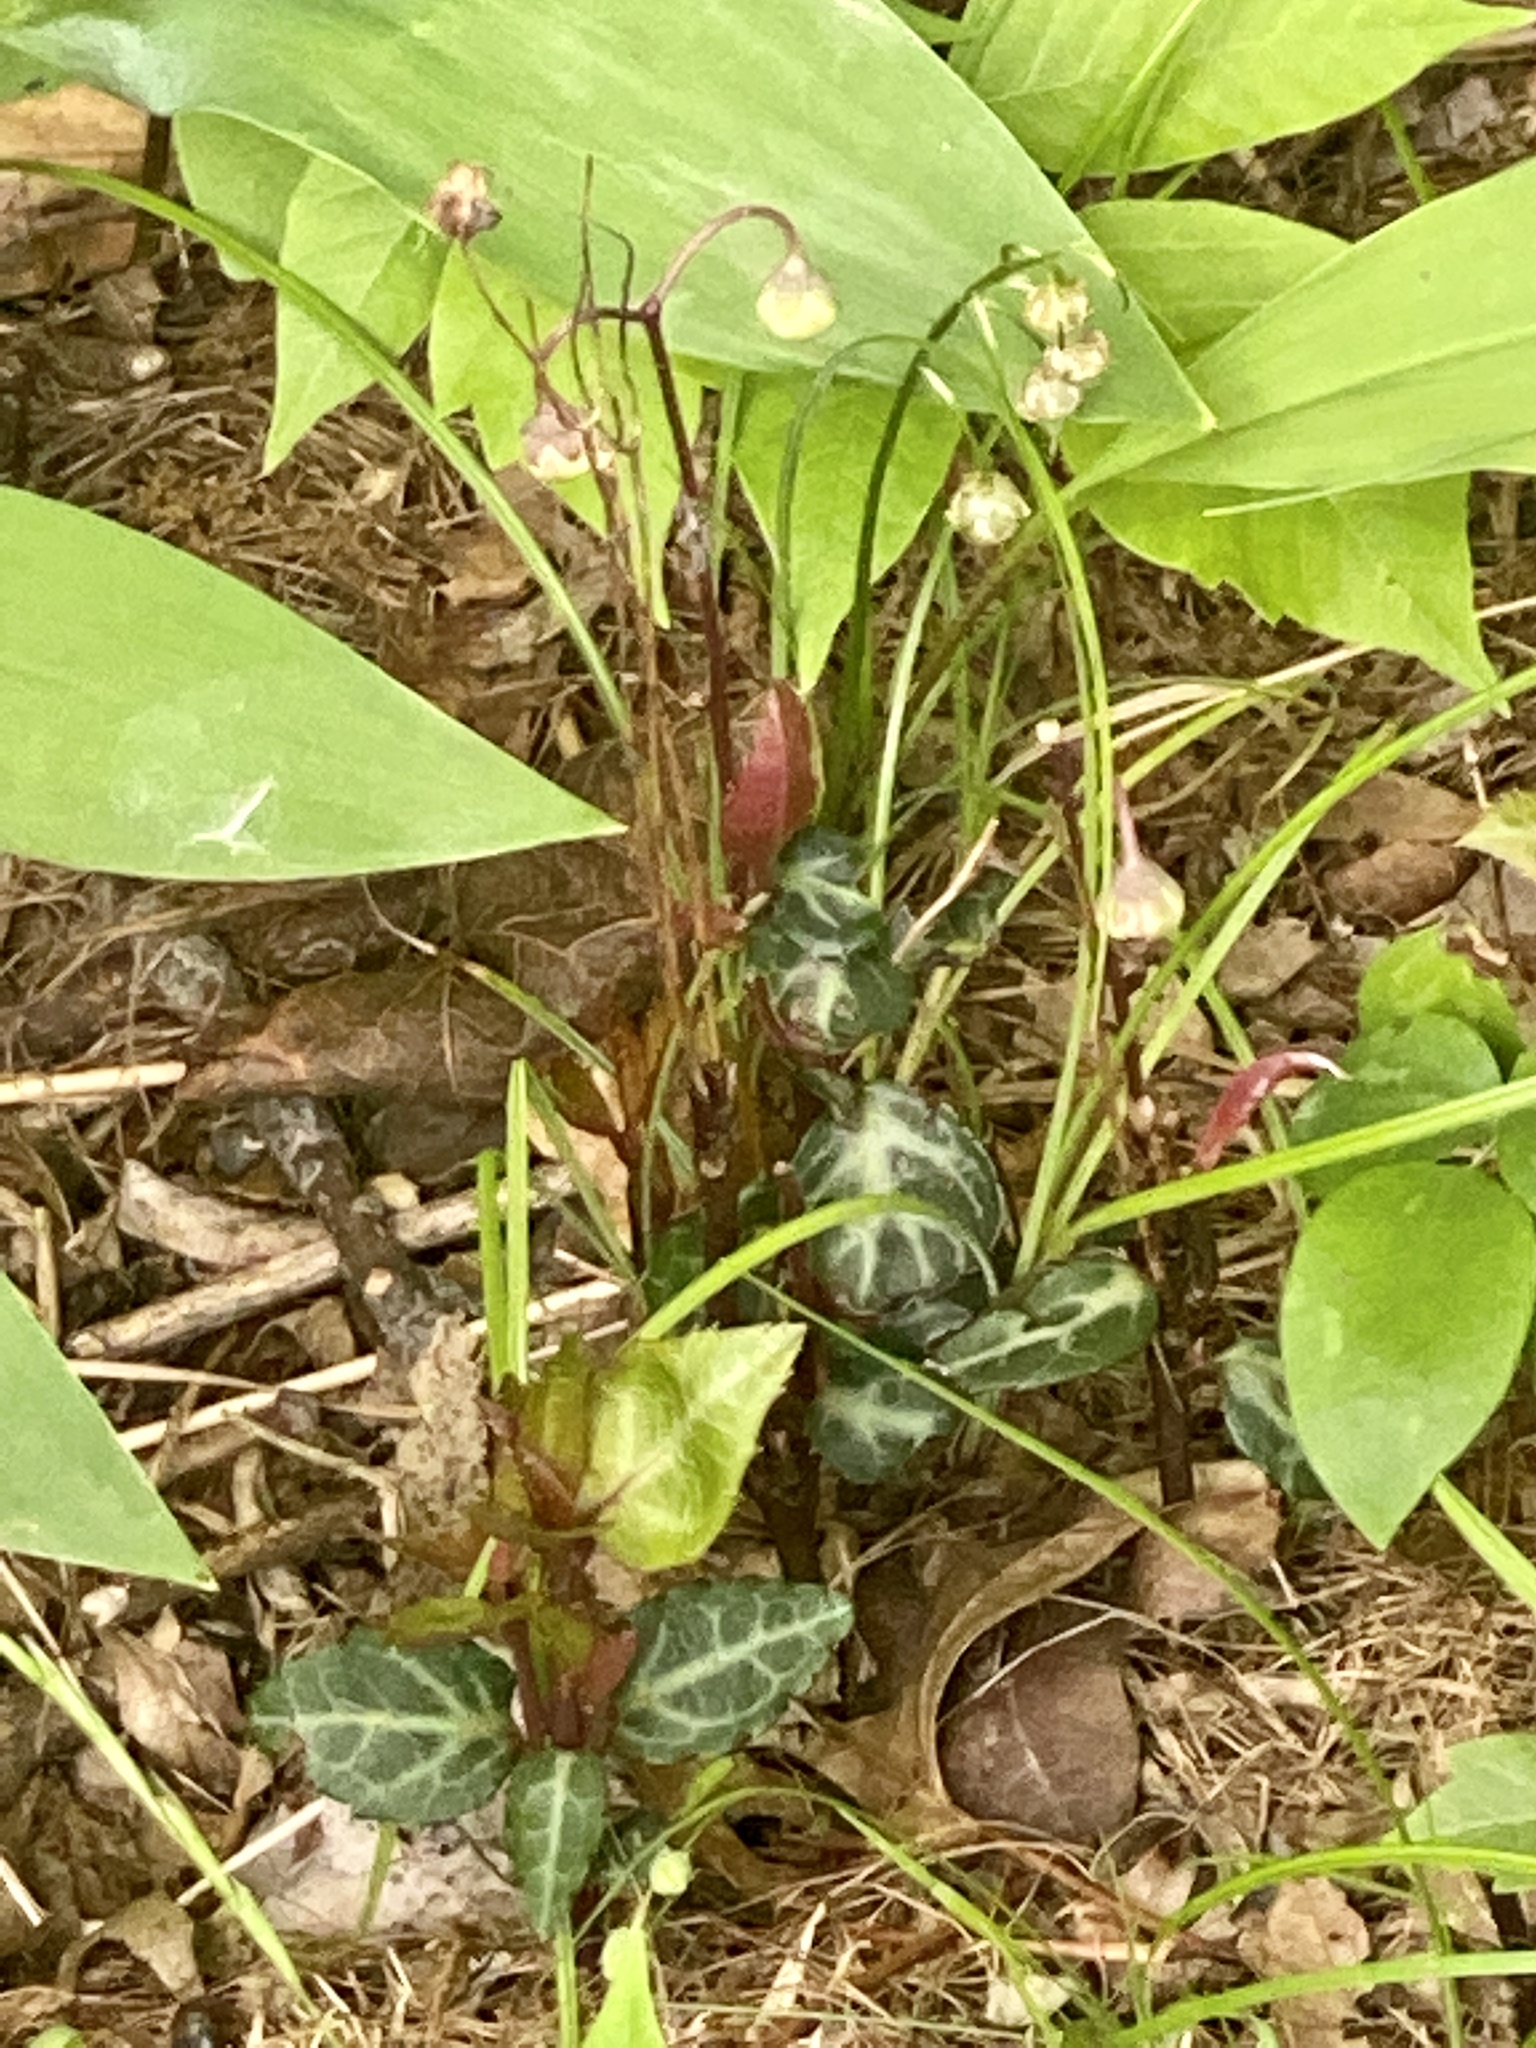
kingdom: Plantae
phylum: Tracheophyta
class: Magnoliopsida
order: Ericales
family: Ericaceae
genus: Chimaphila
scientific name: Chimaphila maculata
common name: Spotted pipsissewa
